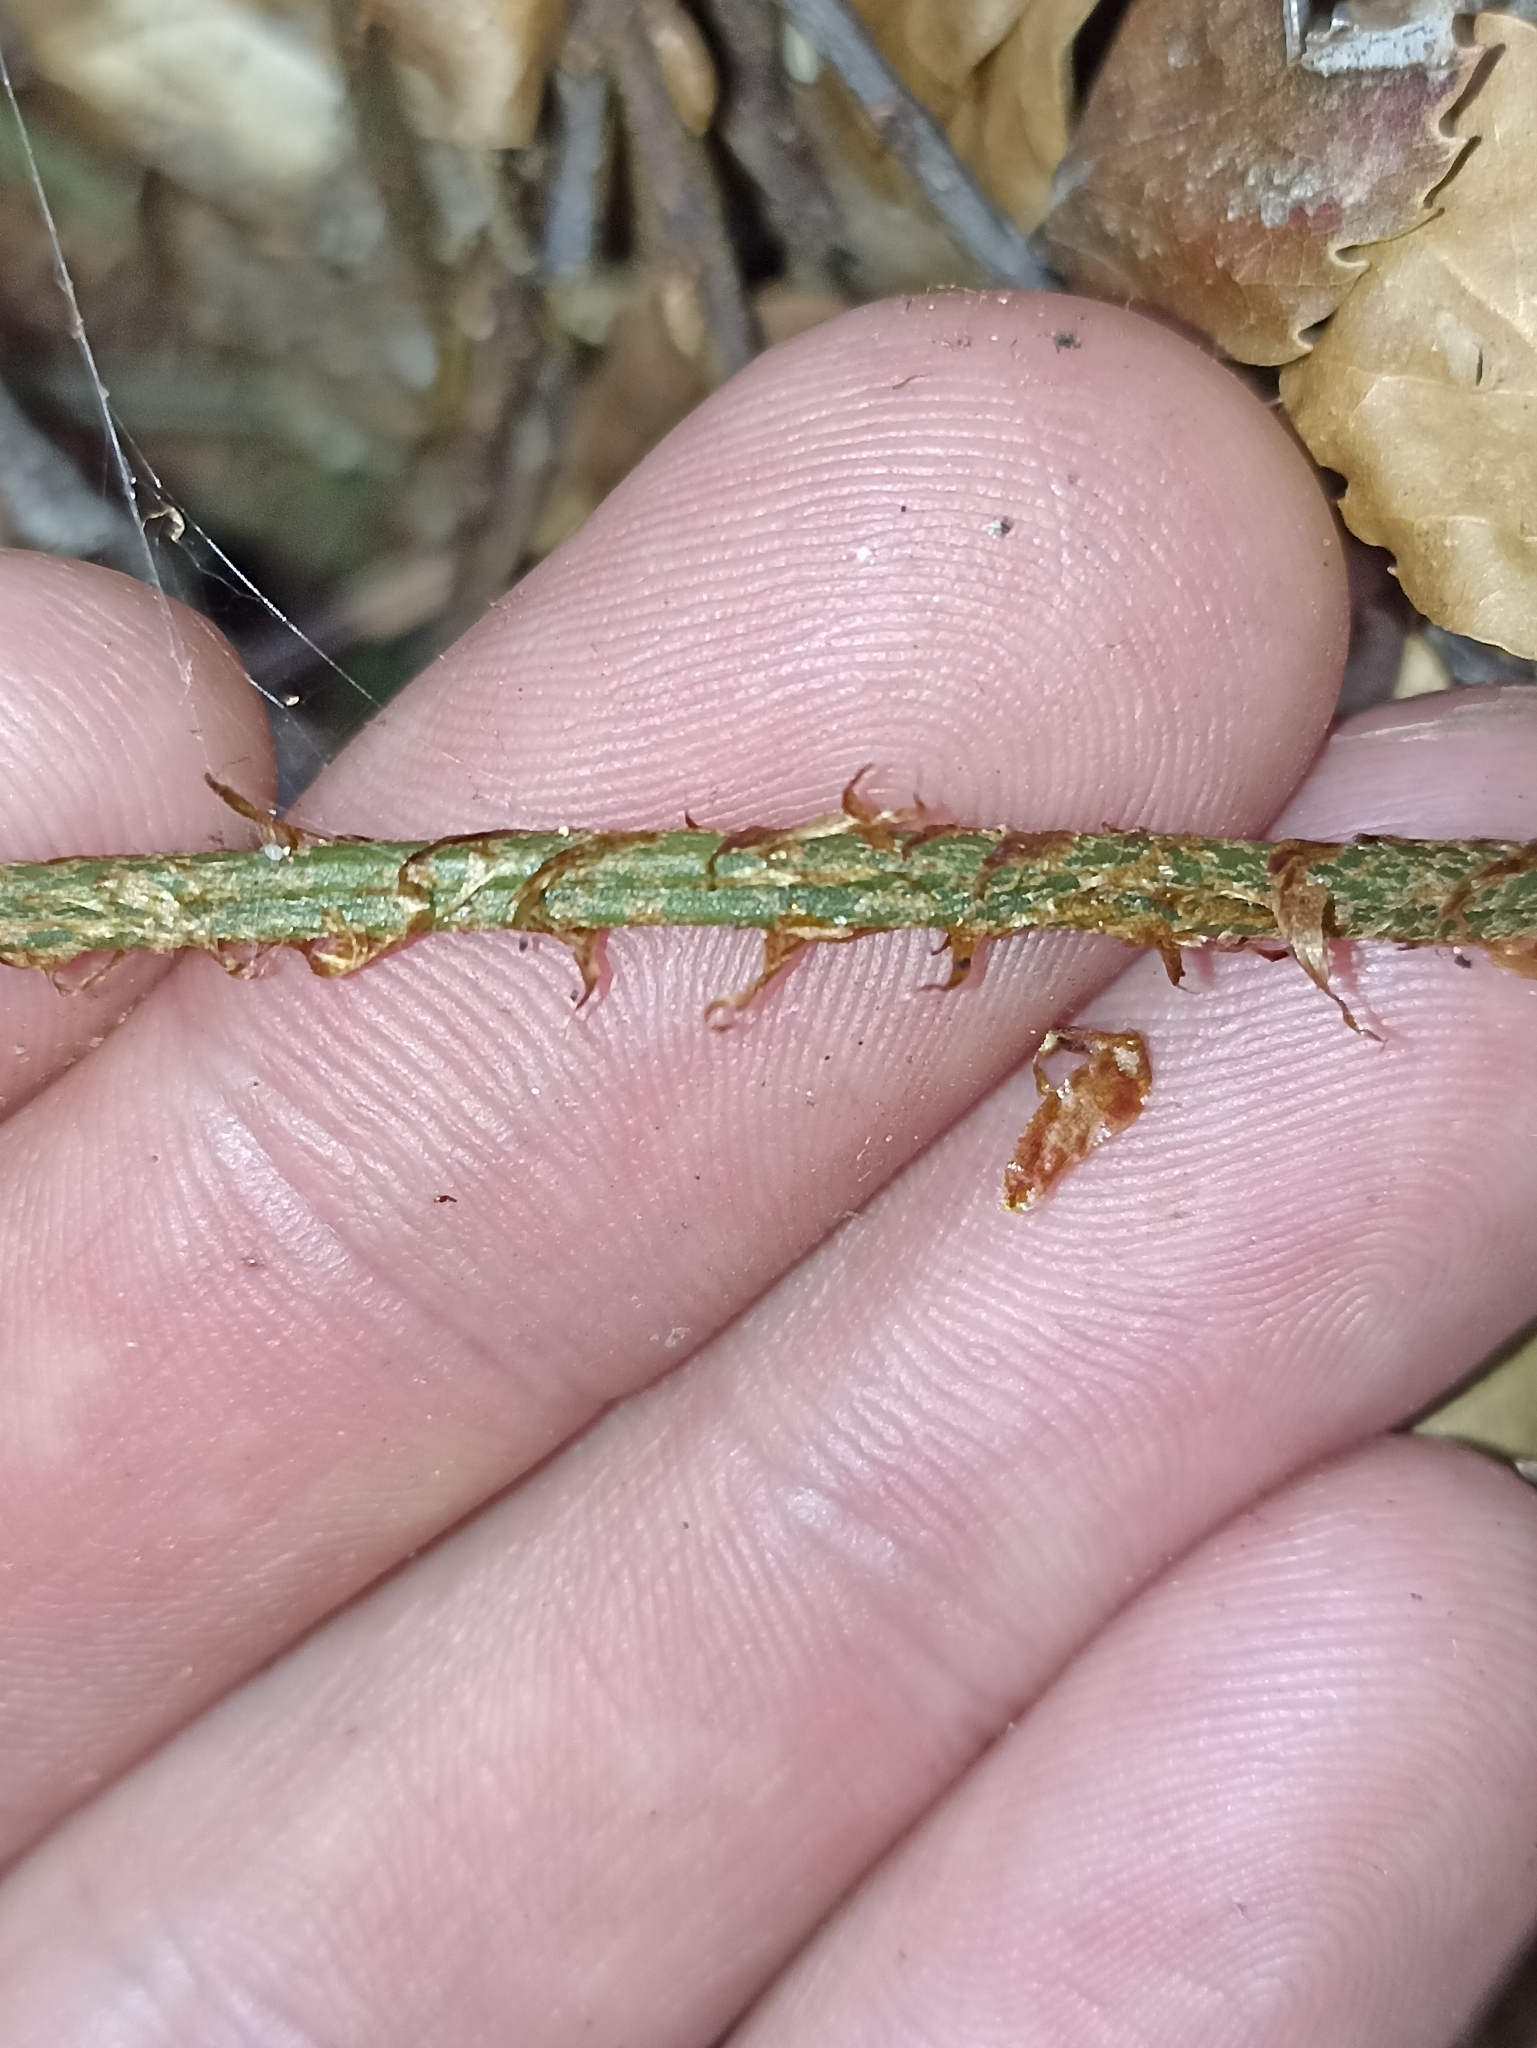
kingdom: Plantae
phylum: Tracheophyta
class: Polypodiopsida
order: Polypodiales
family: Blechnaceae
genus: Parablechnum
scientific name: Parablechnum procerum
